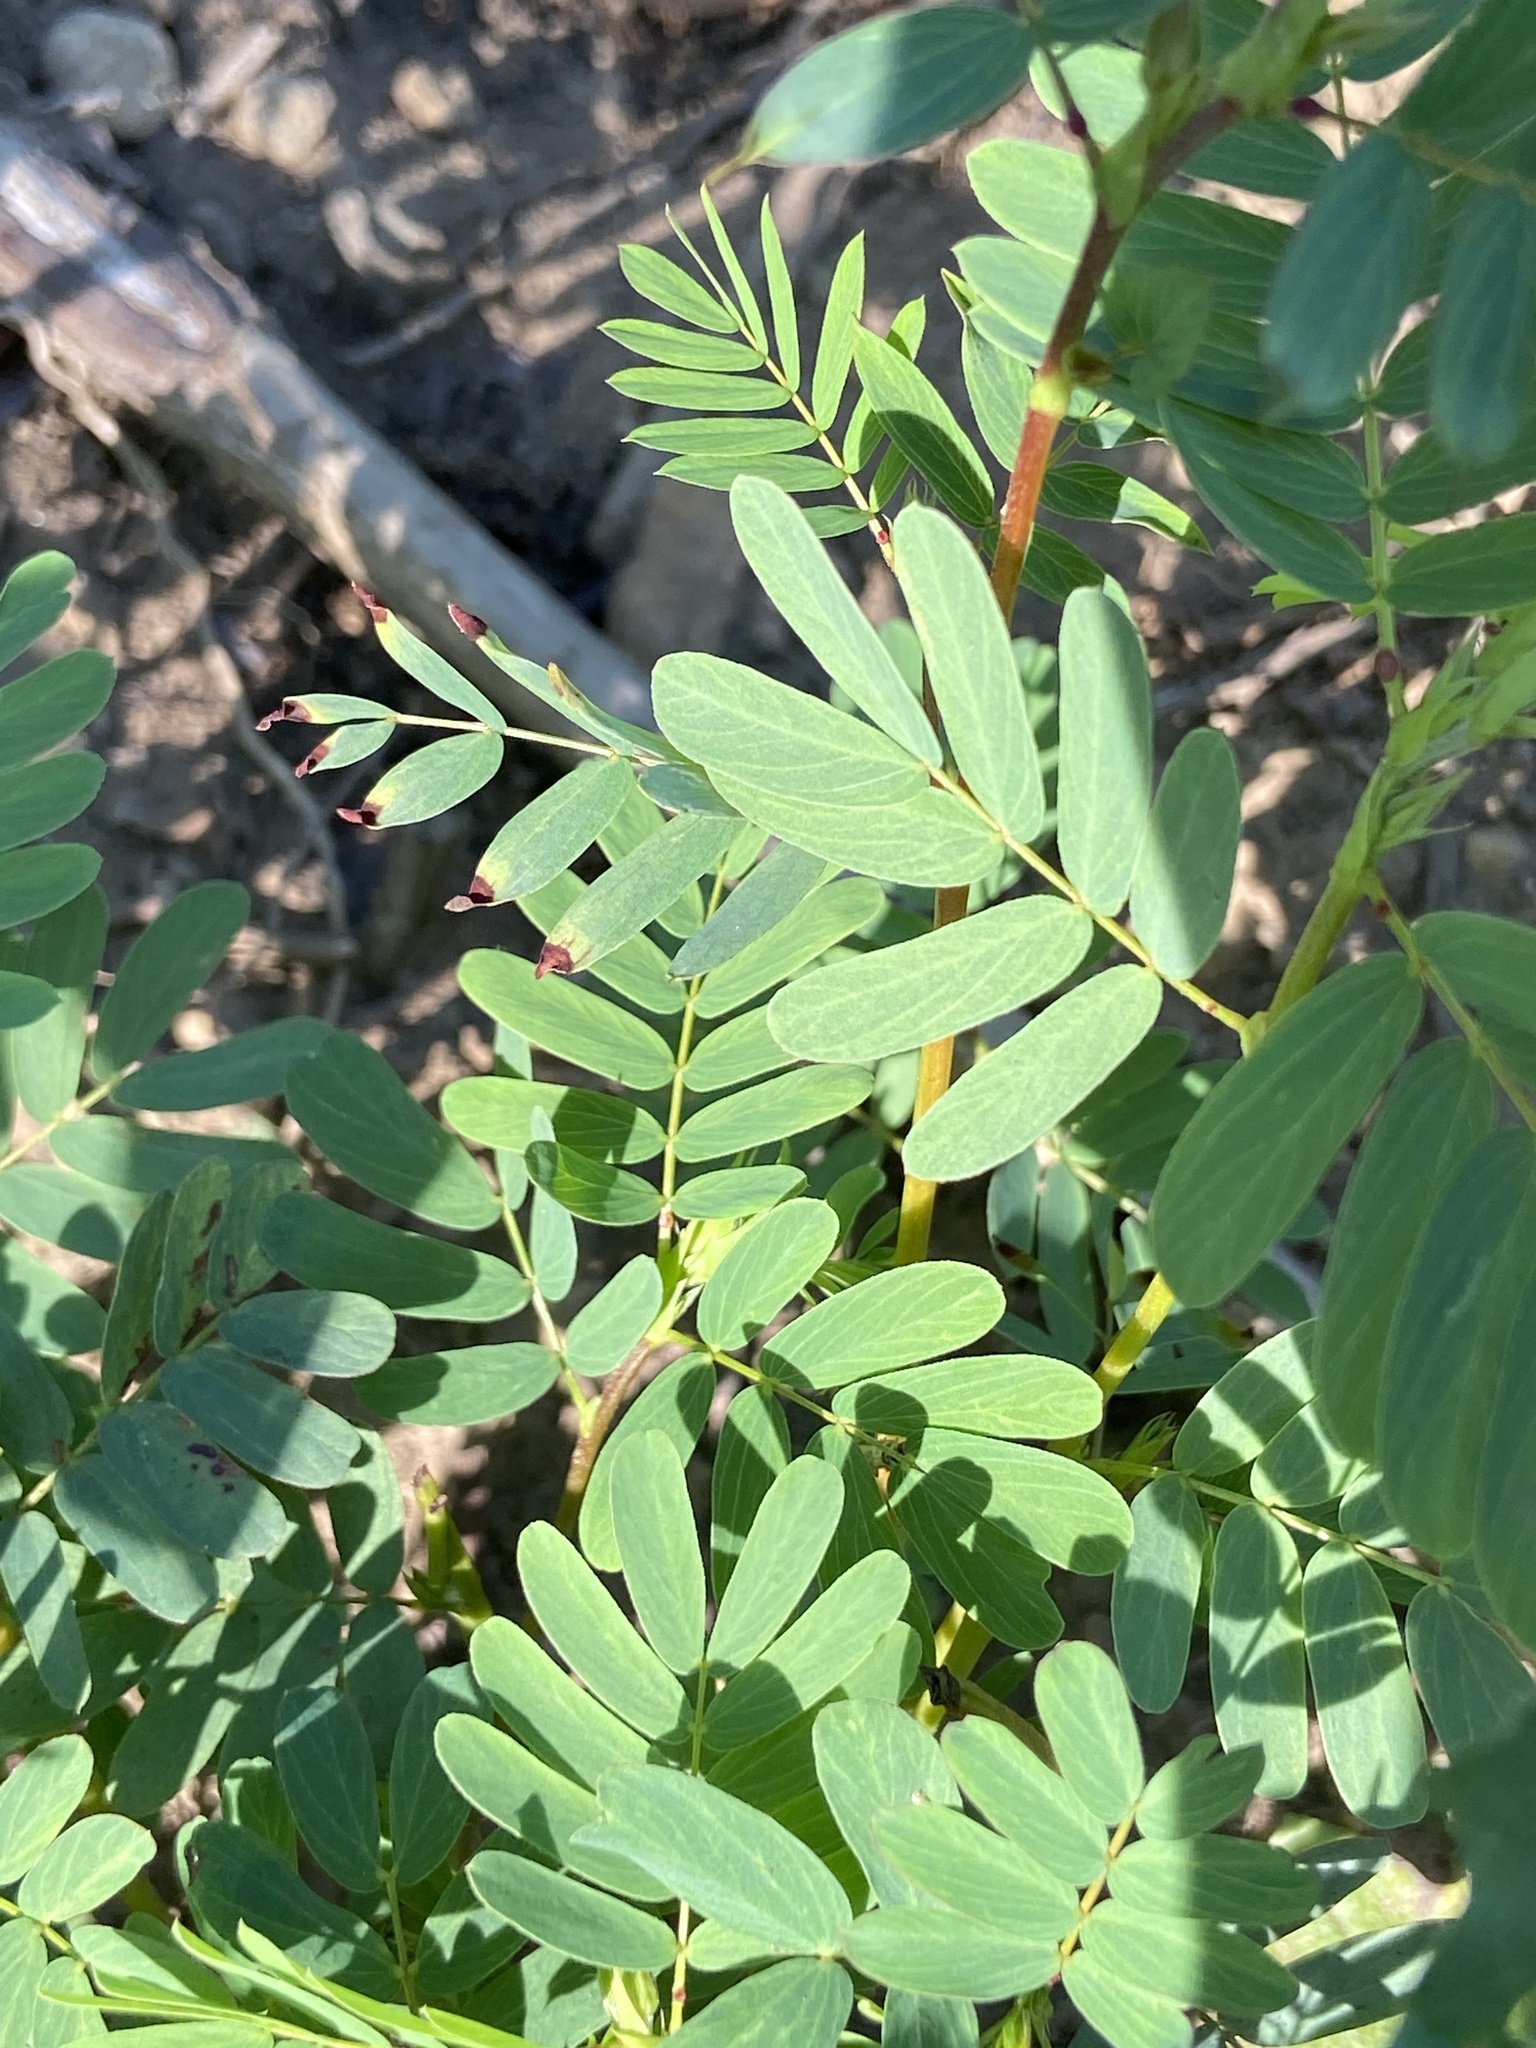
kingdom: Plantae
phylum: Tracheophyta
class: Magnoliopsida
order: Fabales
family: Fabaceae
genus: Chamaecrista
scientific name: Chamaecrista fasciculata
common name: Golden cassia
